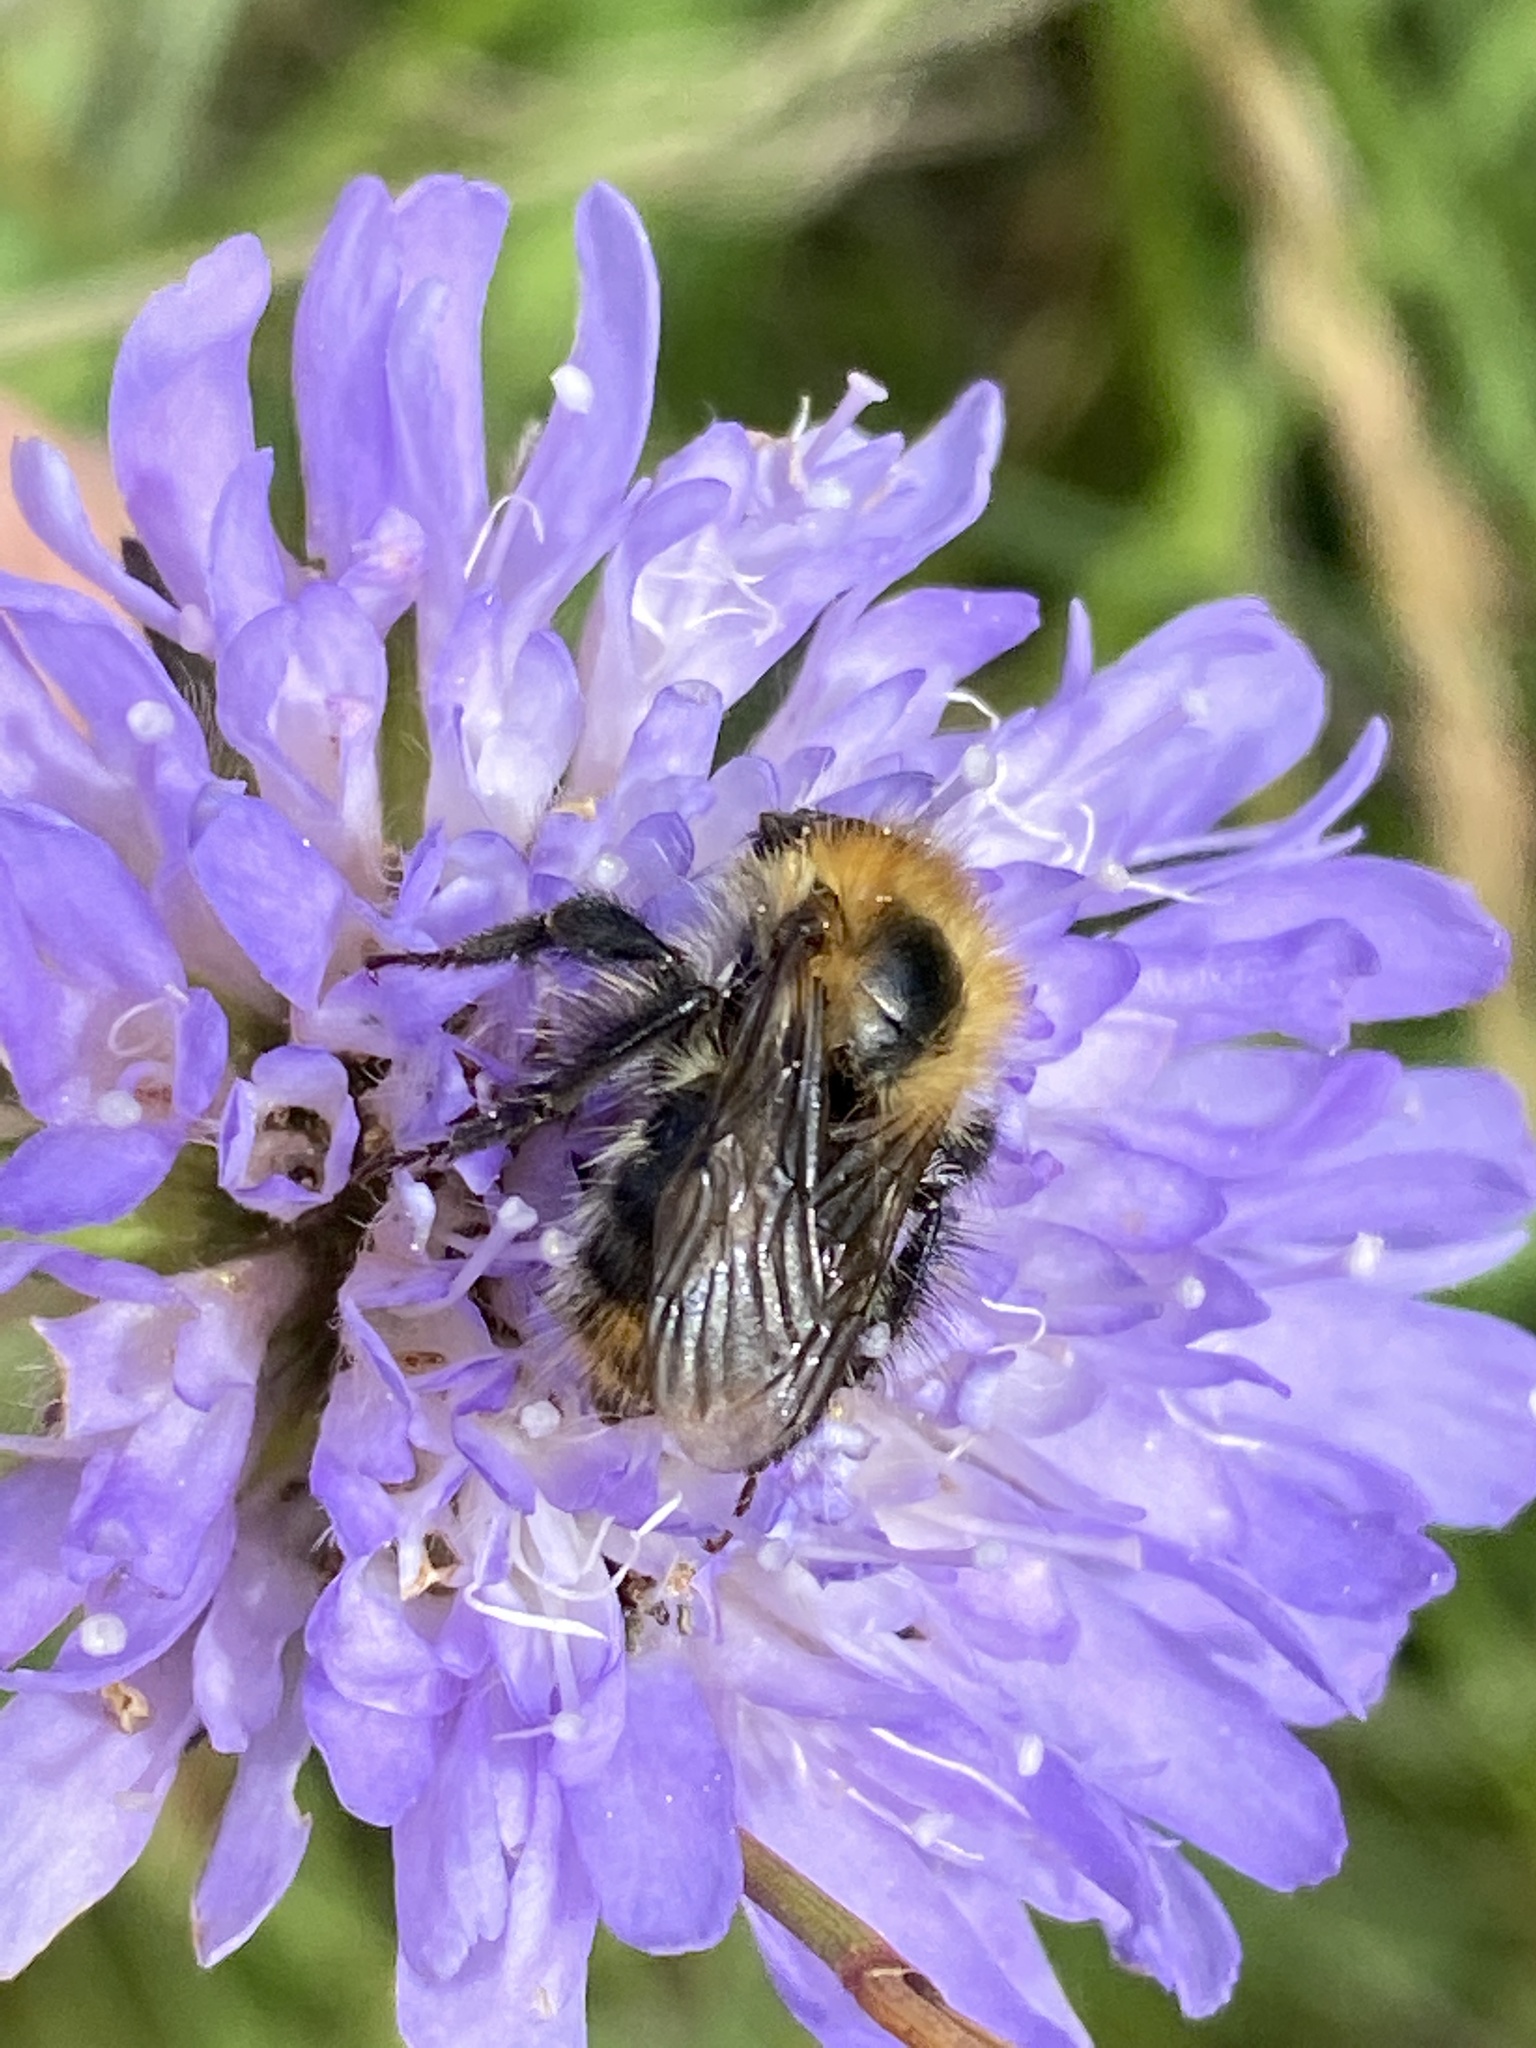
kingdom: Animalia
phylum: Arthropoda
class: Insecta
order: Hymenoptera
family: Apidae
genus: Bombus
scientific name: Bombus pascuorum
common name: Common carder bee
